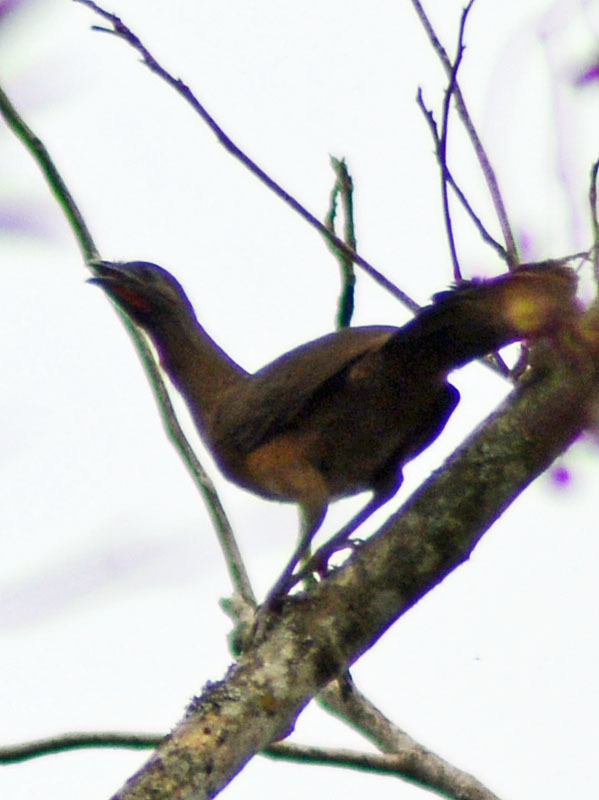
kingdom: Animalia
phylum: Chordata
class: Aves
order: Galliformes
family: Cracidae
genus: Ortalis
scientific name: Ortalis vetula
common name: Plain chachalaca
